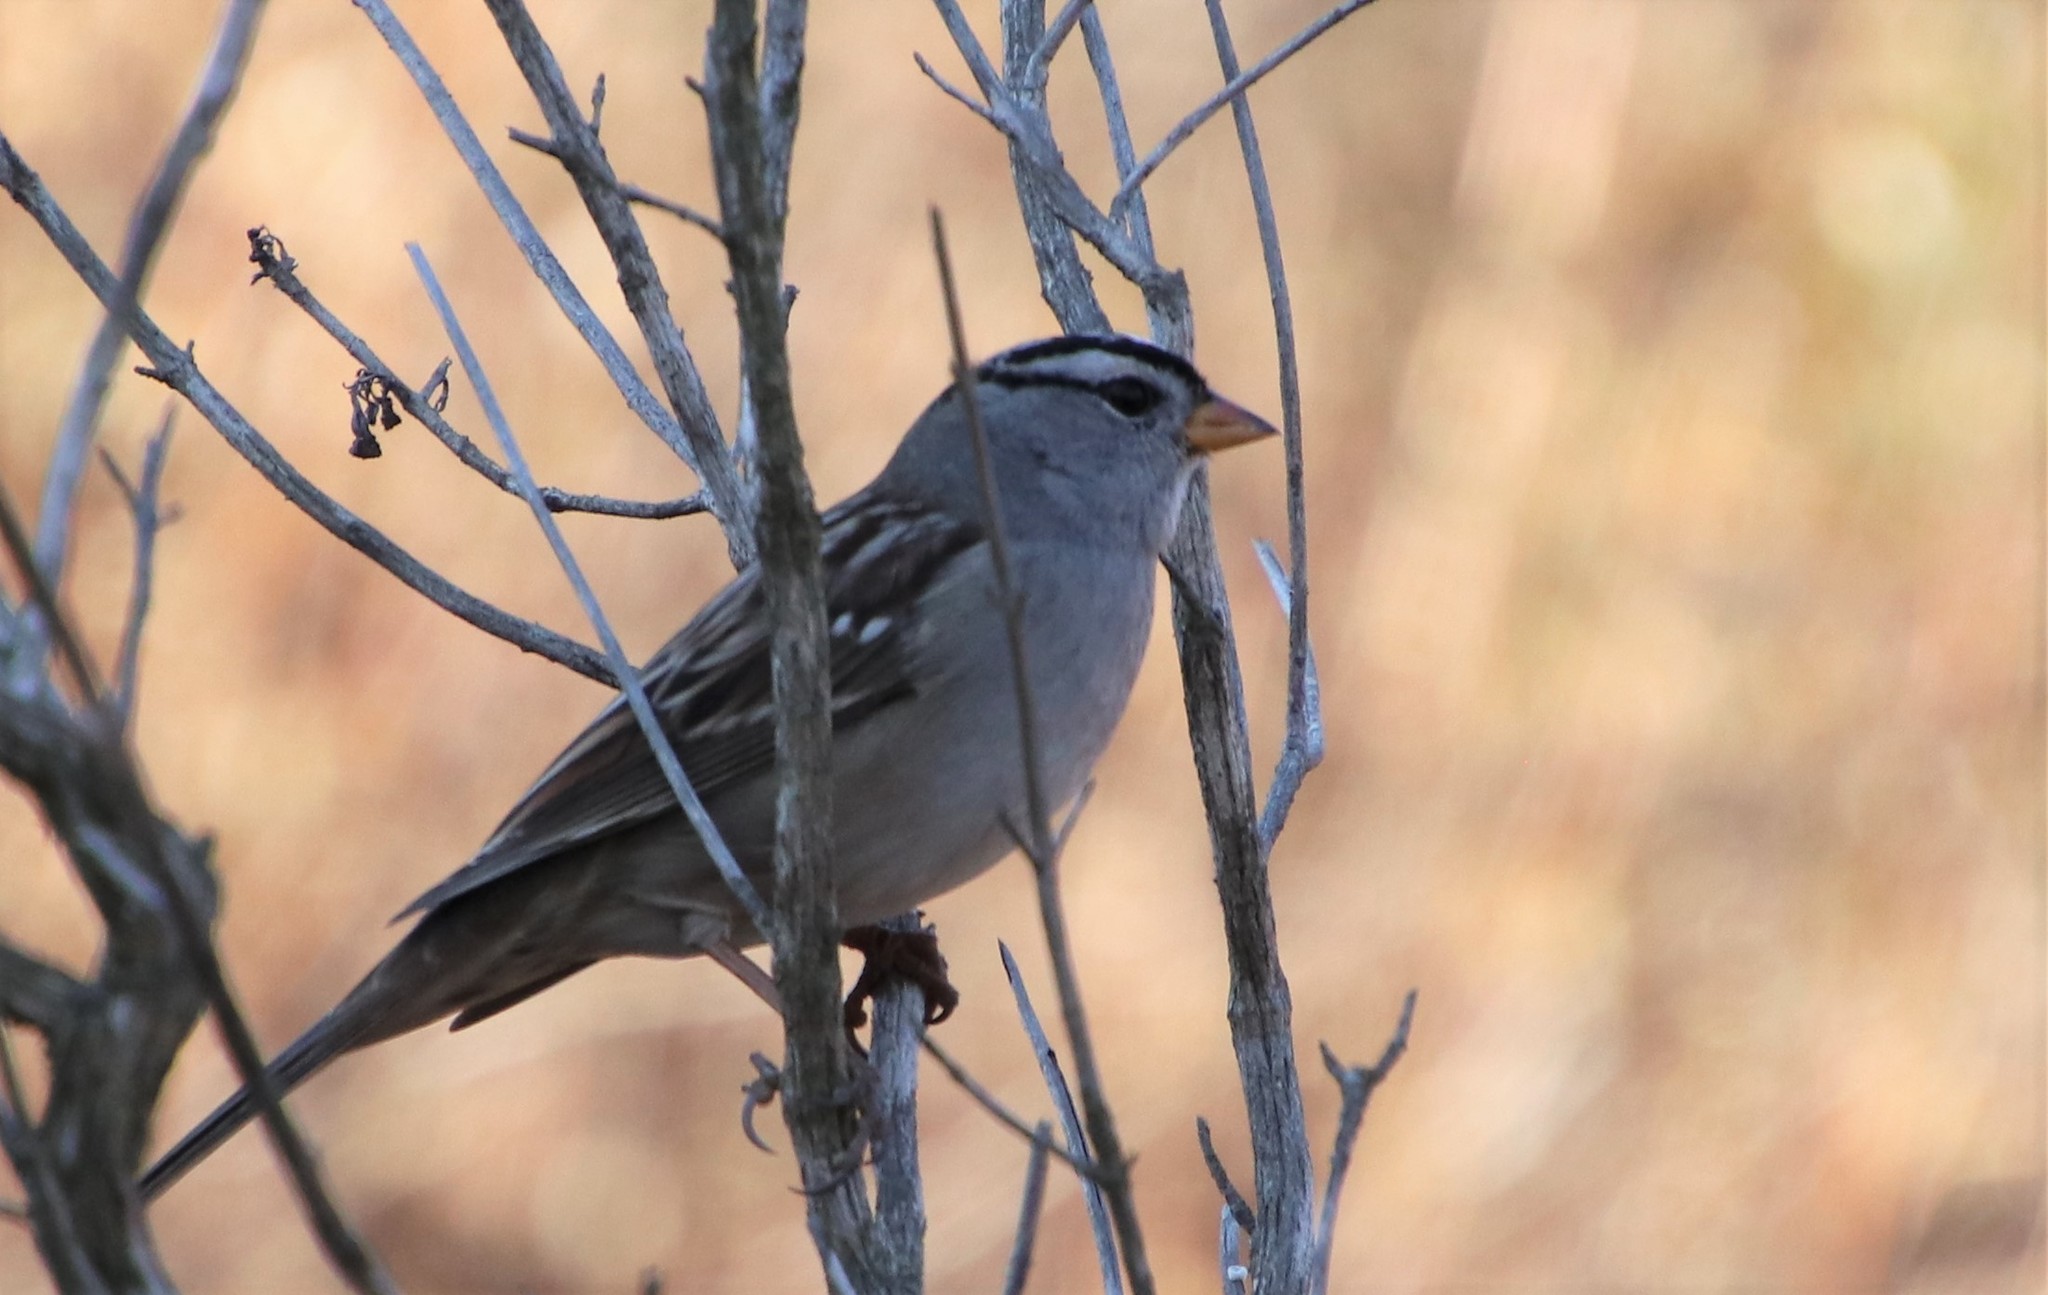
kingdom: Animalia
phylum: Chordata
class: Aves
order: Passeriformes
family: Passerellidae
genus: Zonotrichia
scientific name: Zonotrichia leucophrys
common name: White-crowned sparrow
